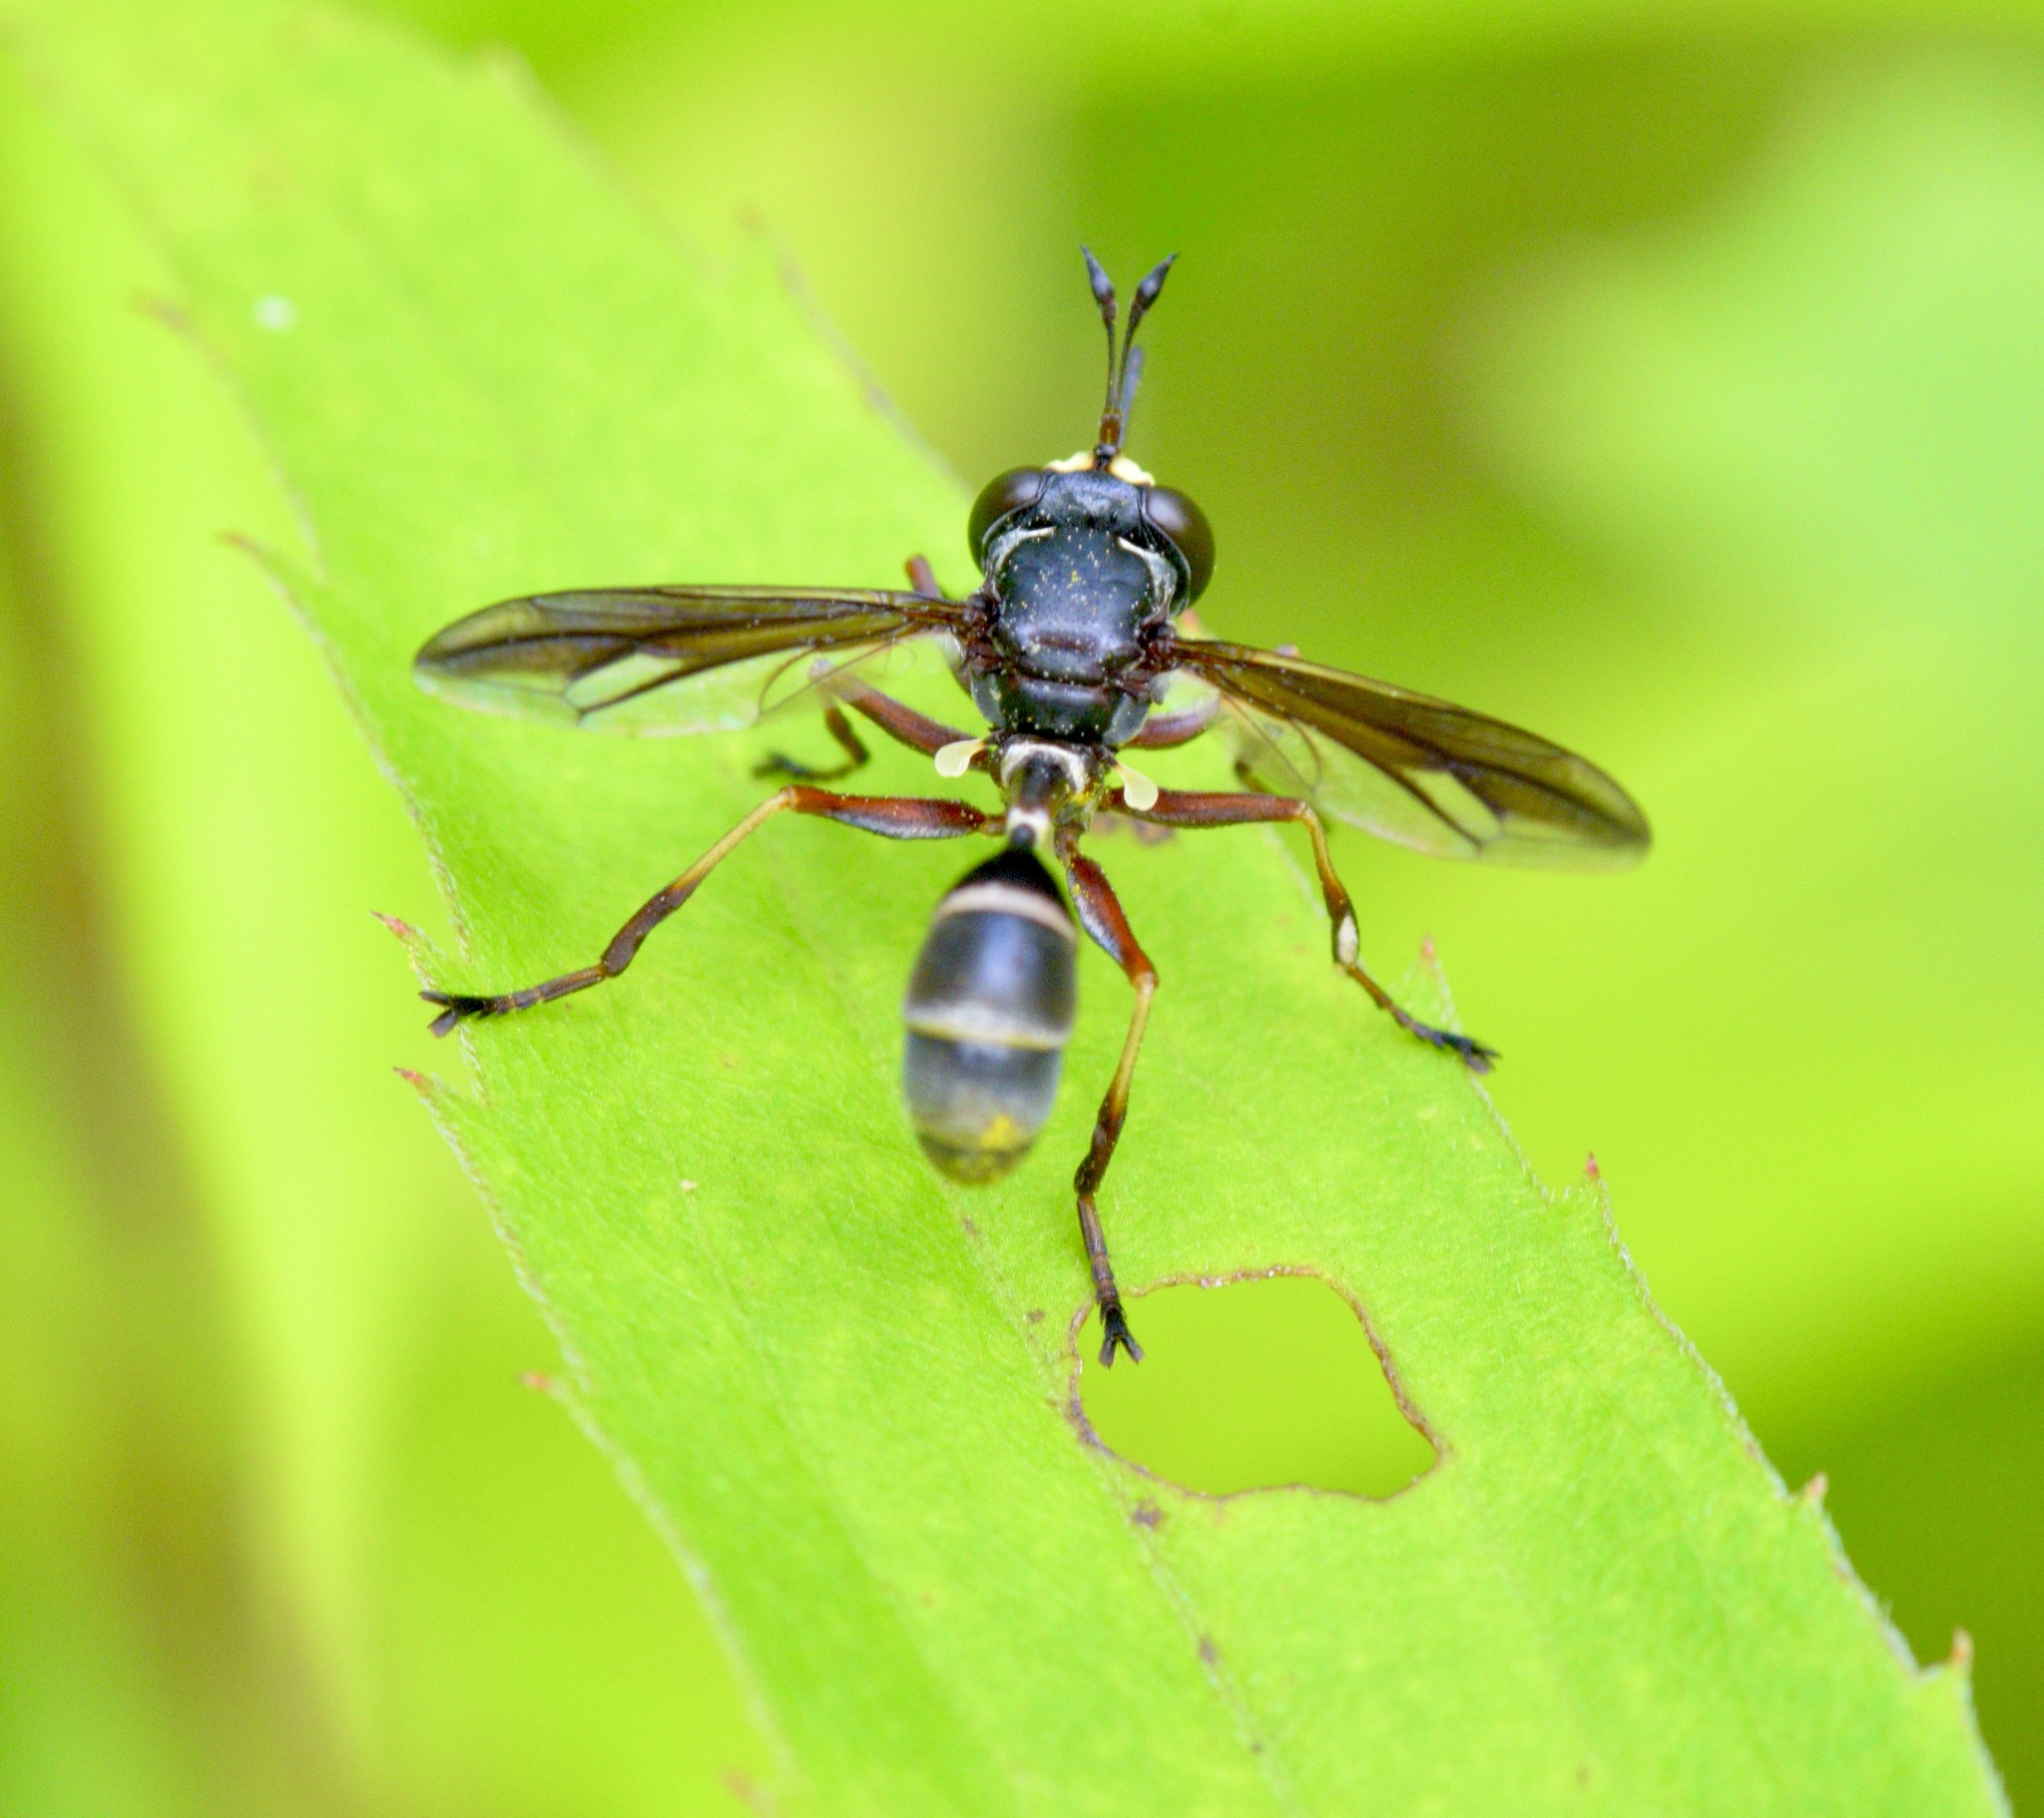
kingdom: Animalia
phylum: Arthropoda
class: Insecta
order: Diptera
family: Conopidae
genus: Physocephala
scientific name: Physocephala furcillata
